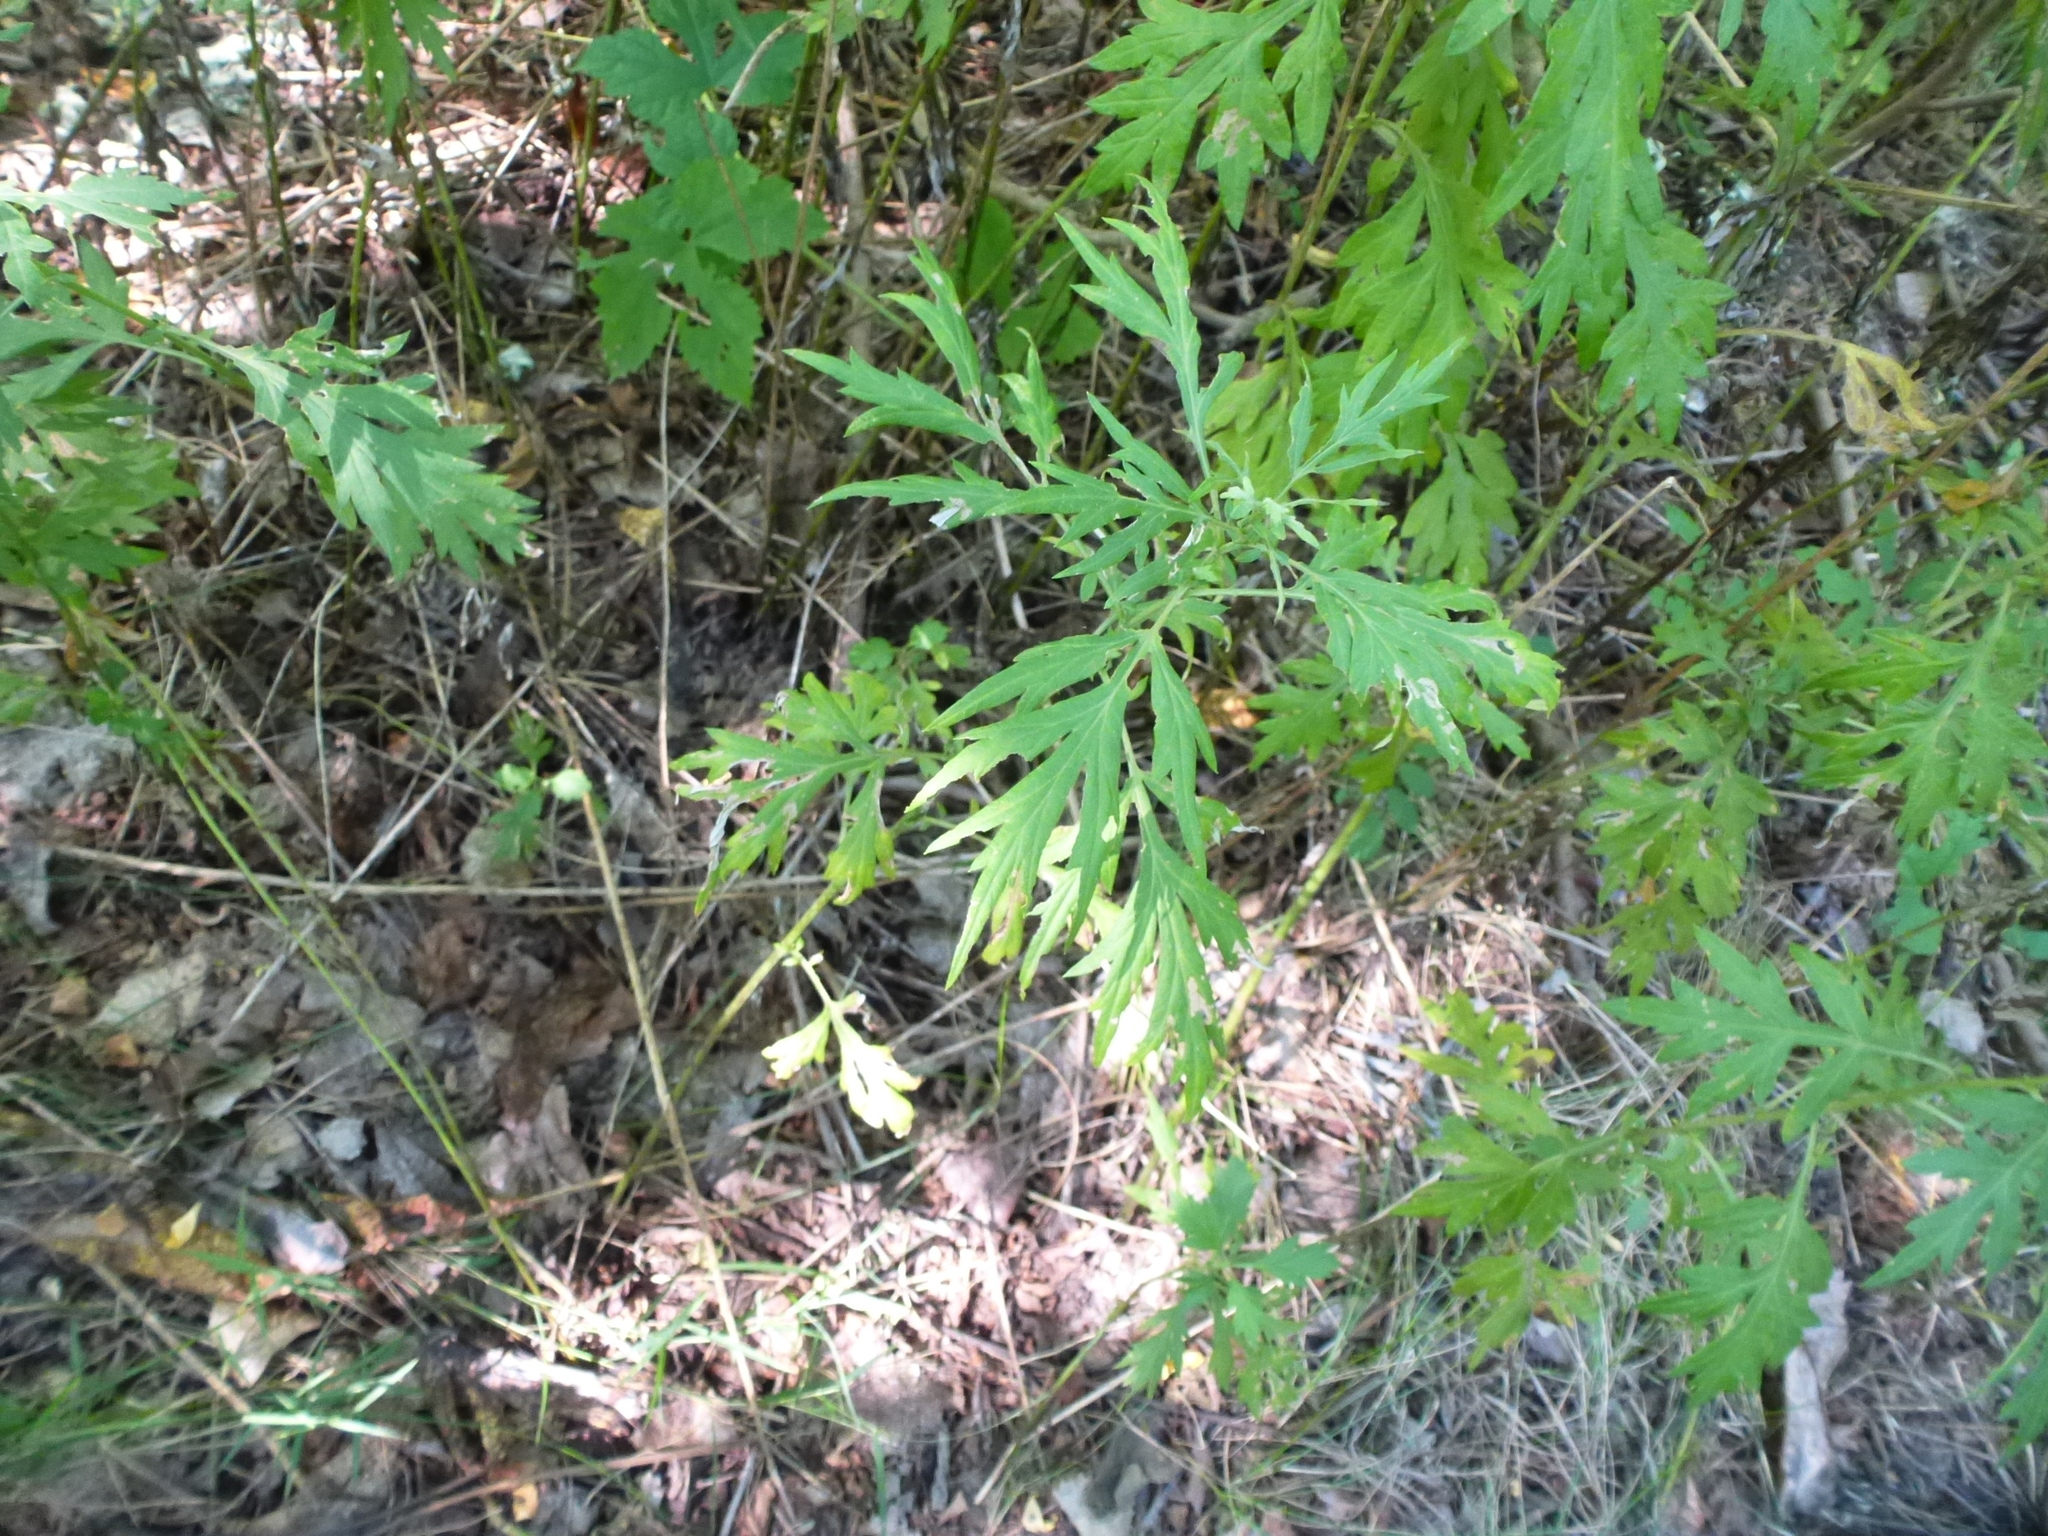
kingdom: Plantae
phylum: Tracheophyta
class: Magnoliopsida
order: Asterales
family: Asteraceae
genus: Artemisia
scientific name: Artemisia vulgaris
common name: Mugwort
